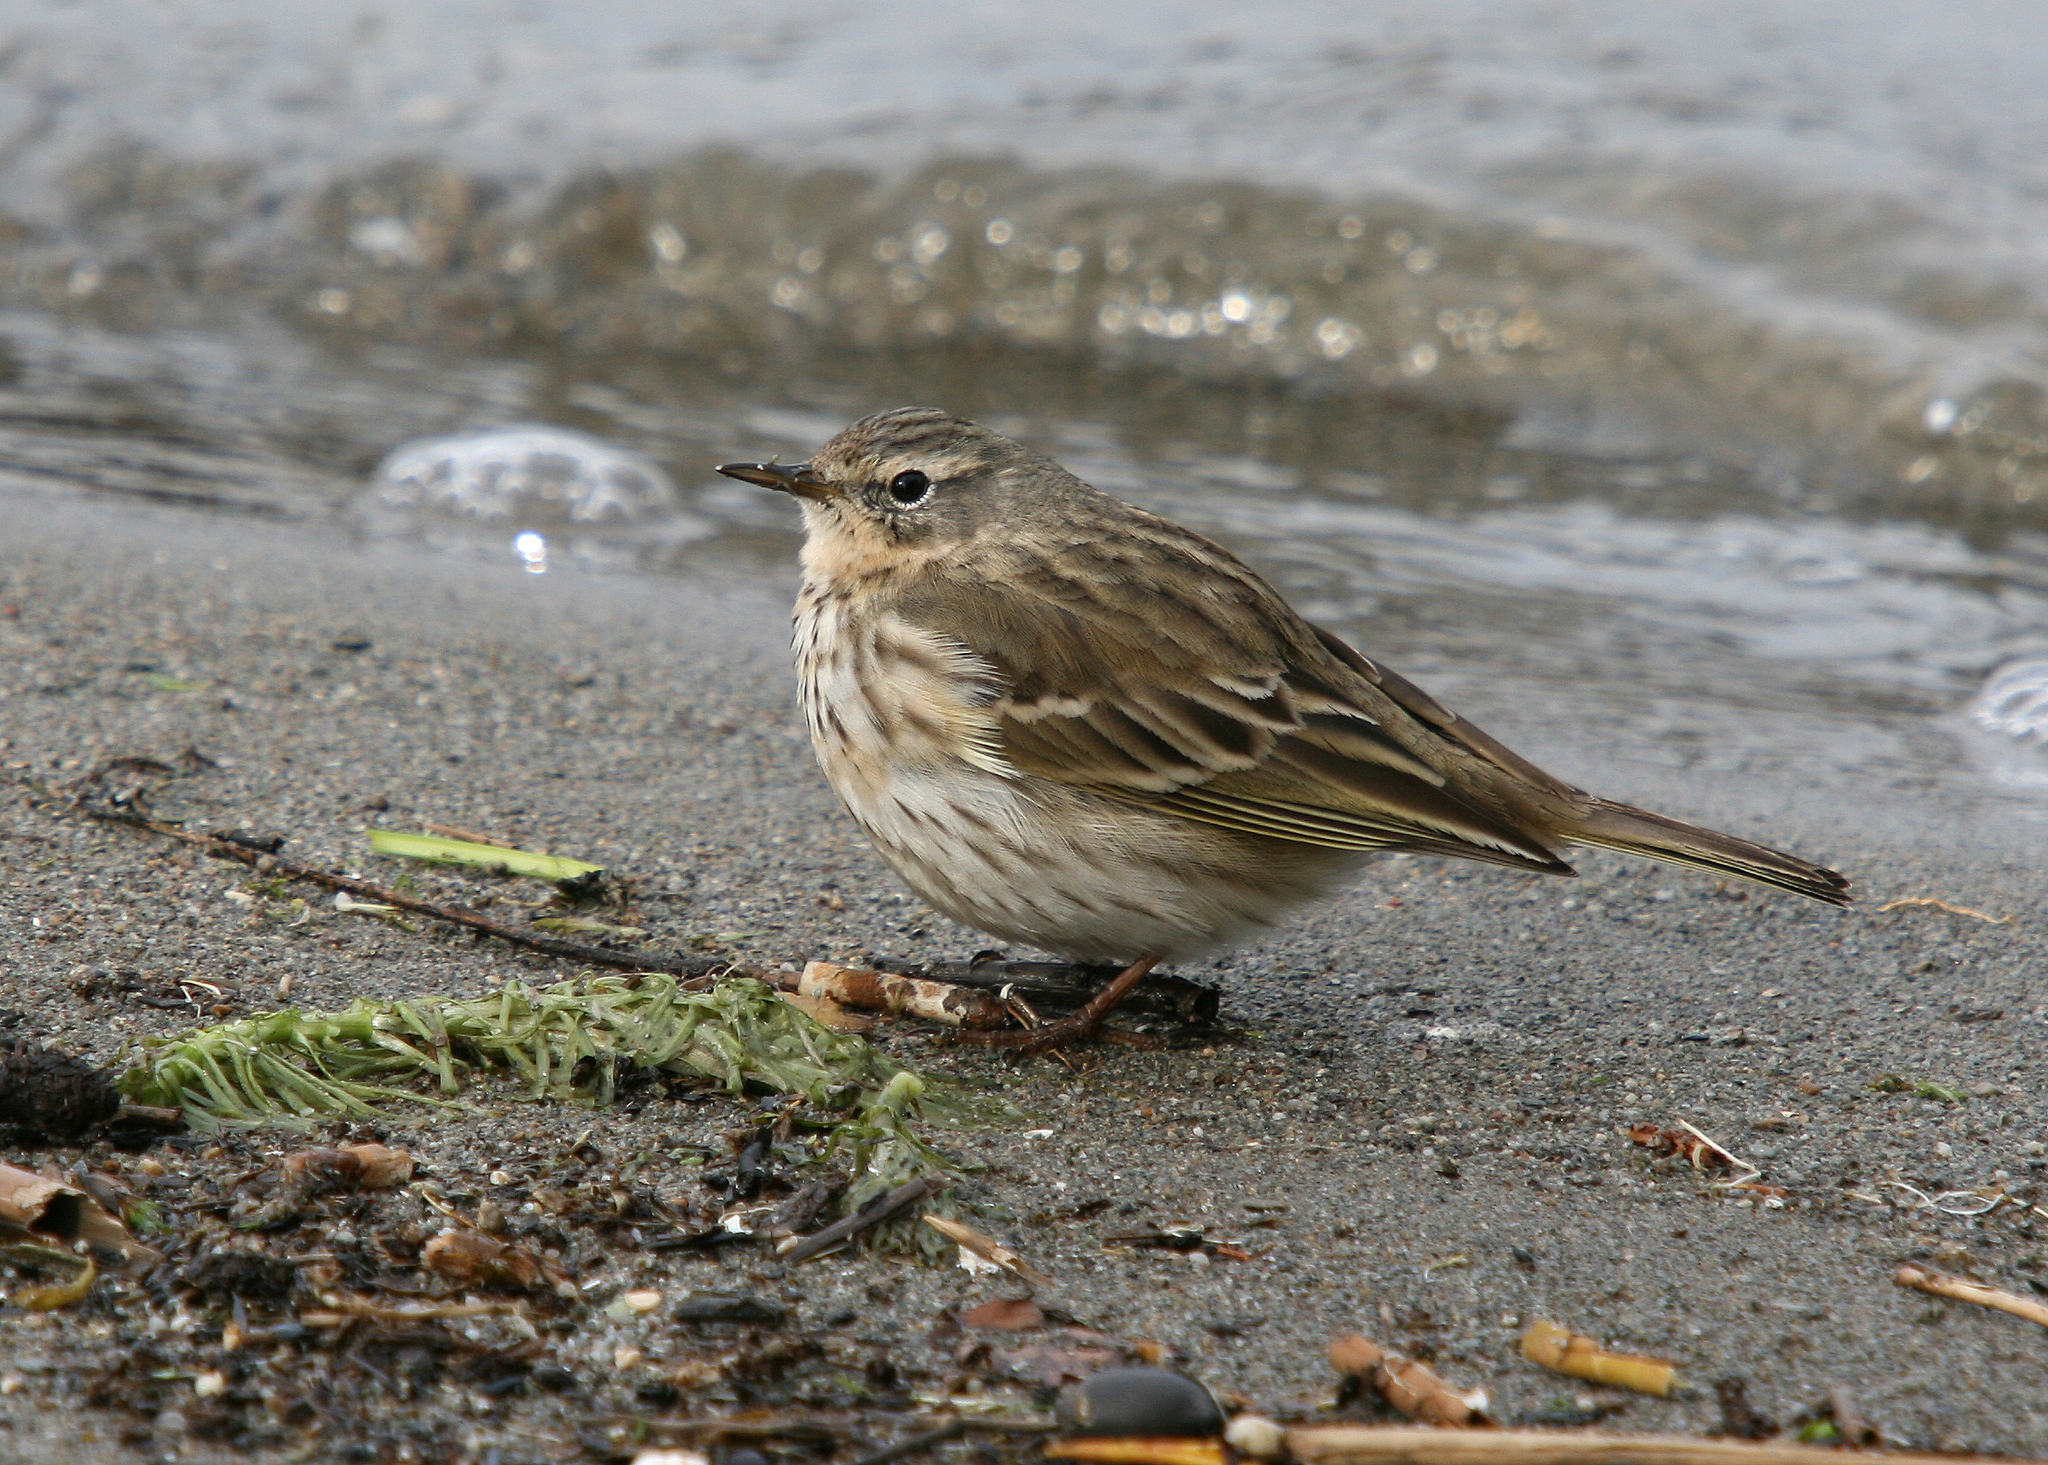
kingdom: Animalia
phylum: Chordata
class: Aves
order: Passeriformes
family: Motacillidae
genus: Anthus
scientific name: Anthus spinoletta
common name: Water pipit
